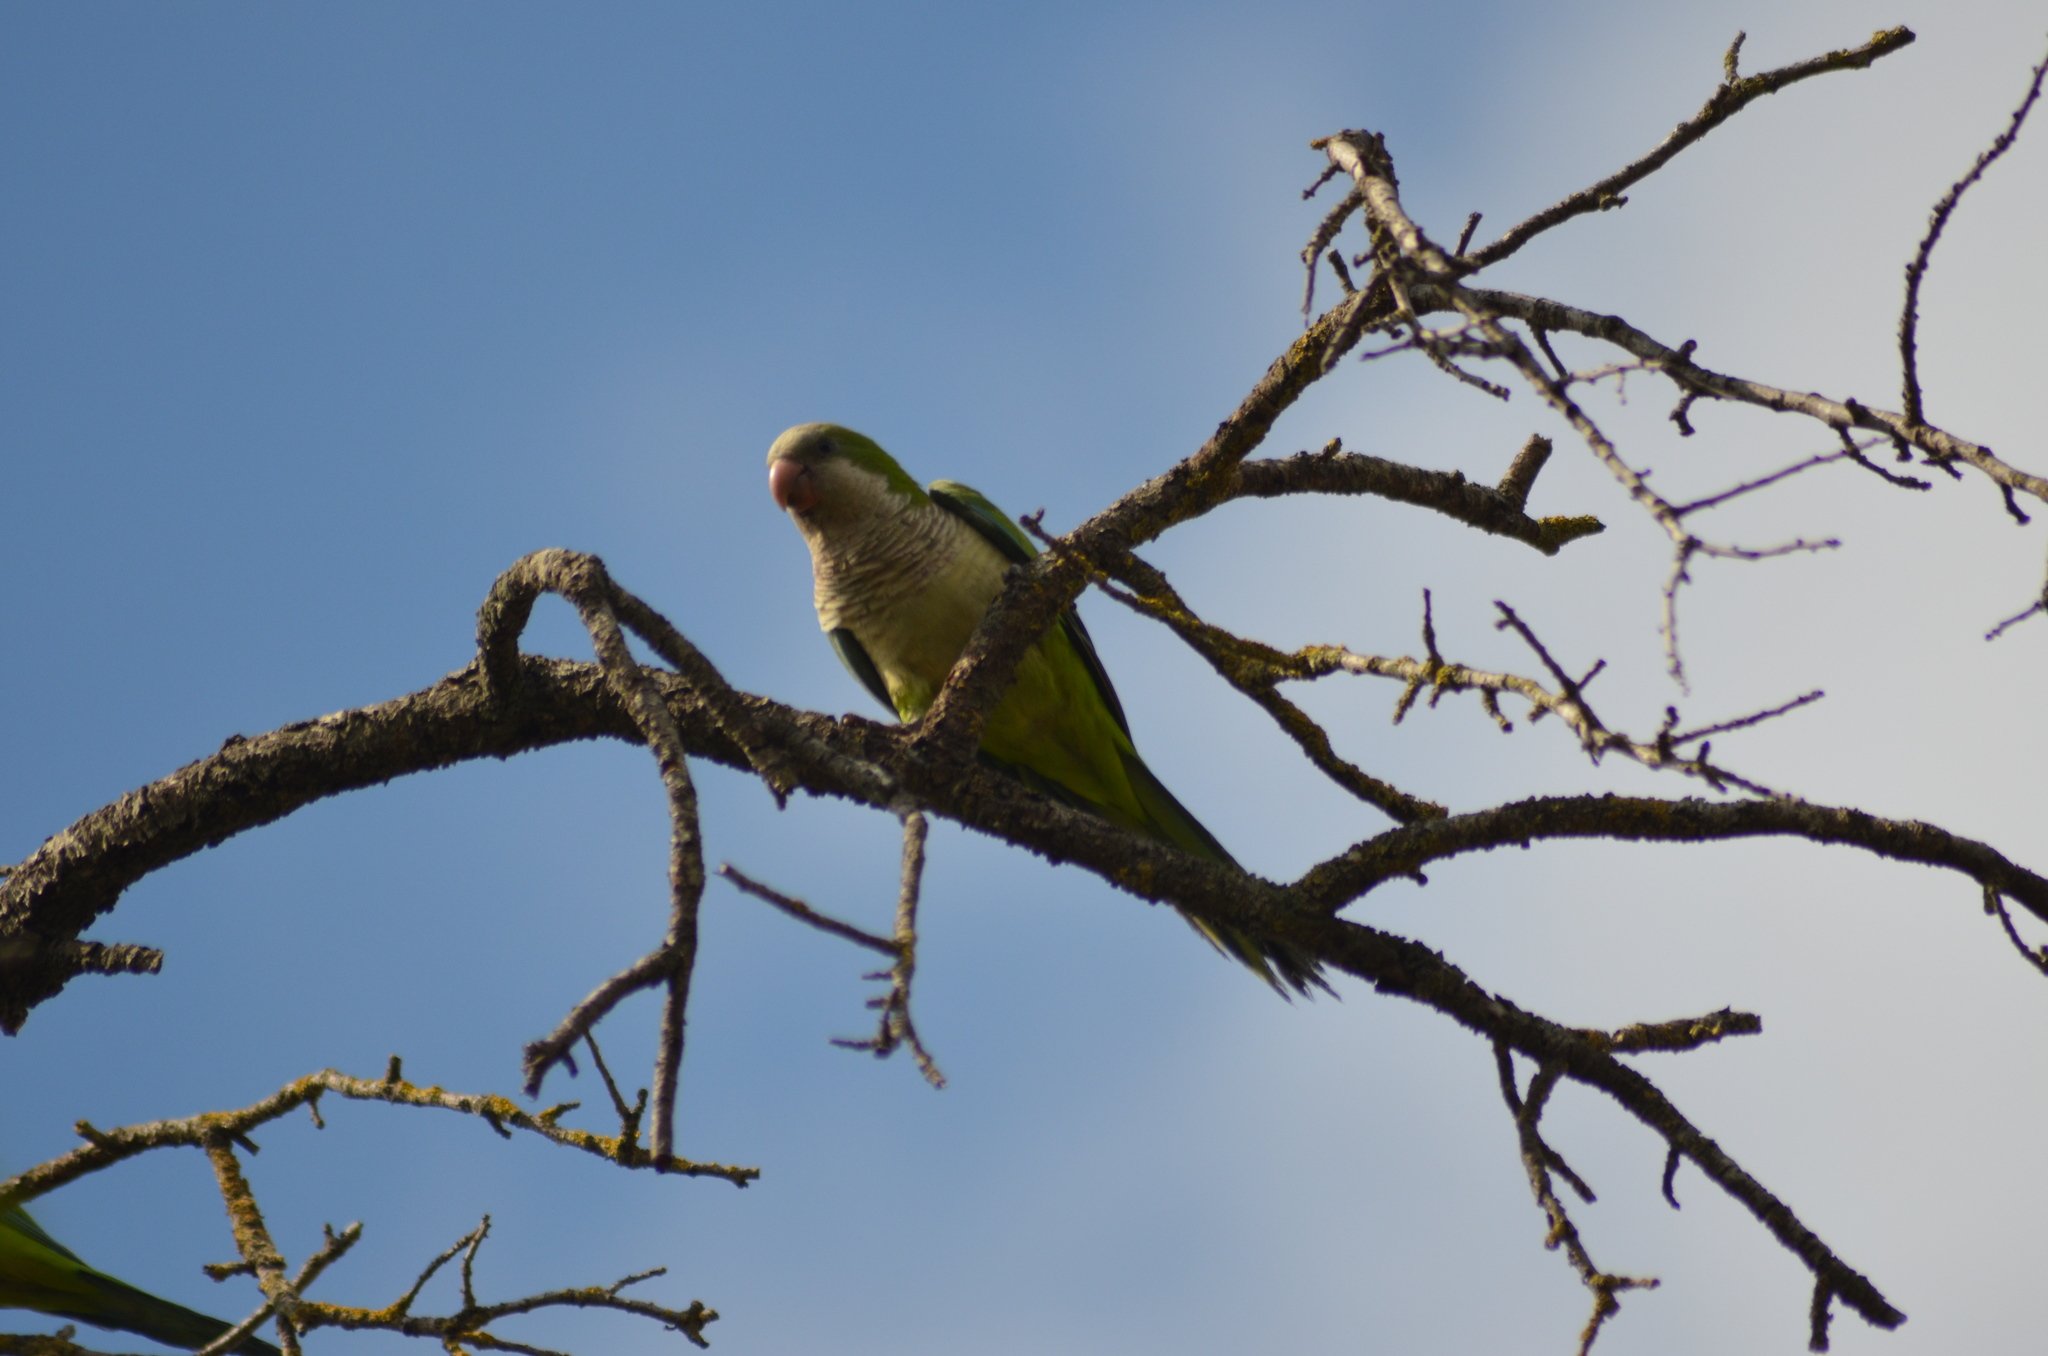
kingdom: Animalia
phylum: Chordata
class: Aves
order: Psittaciformes
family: Psittacidae
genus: Myiopsitta
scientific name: Myiopsitta monachus
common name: Monk parakeet
